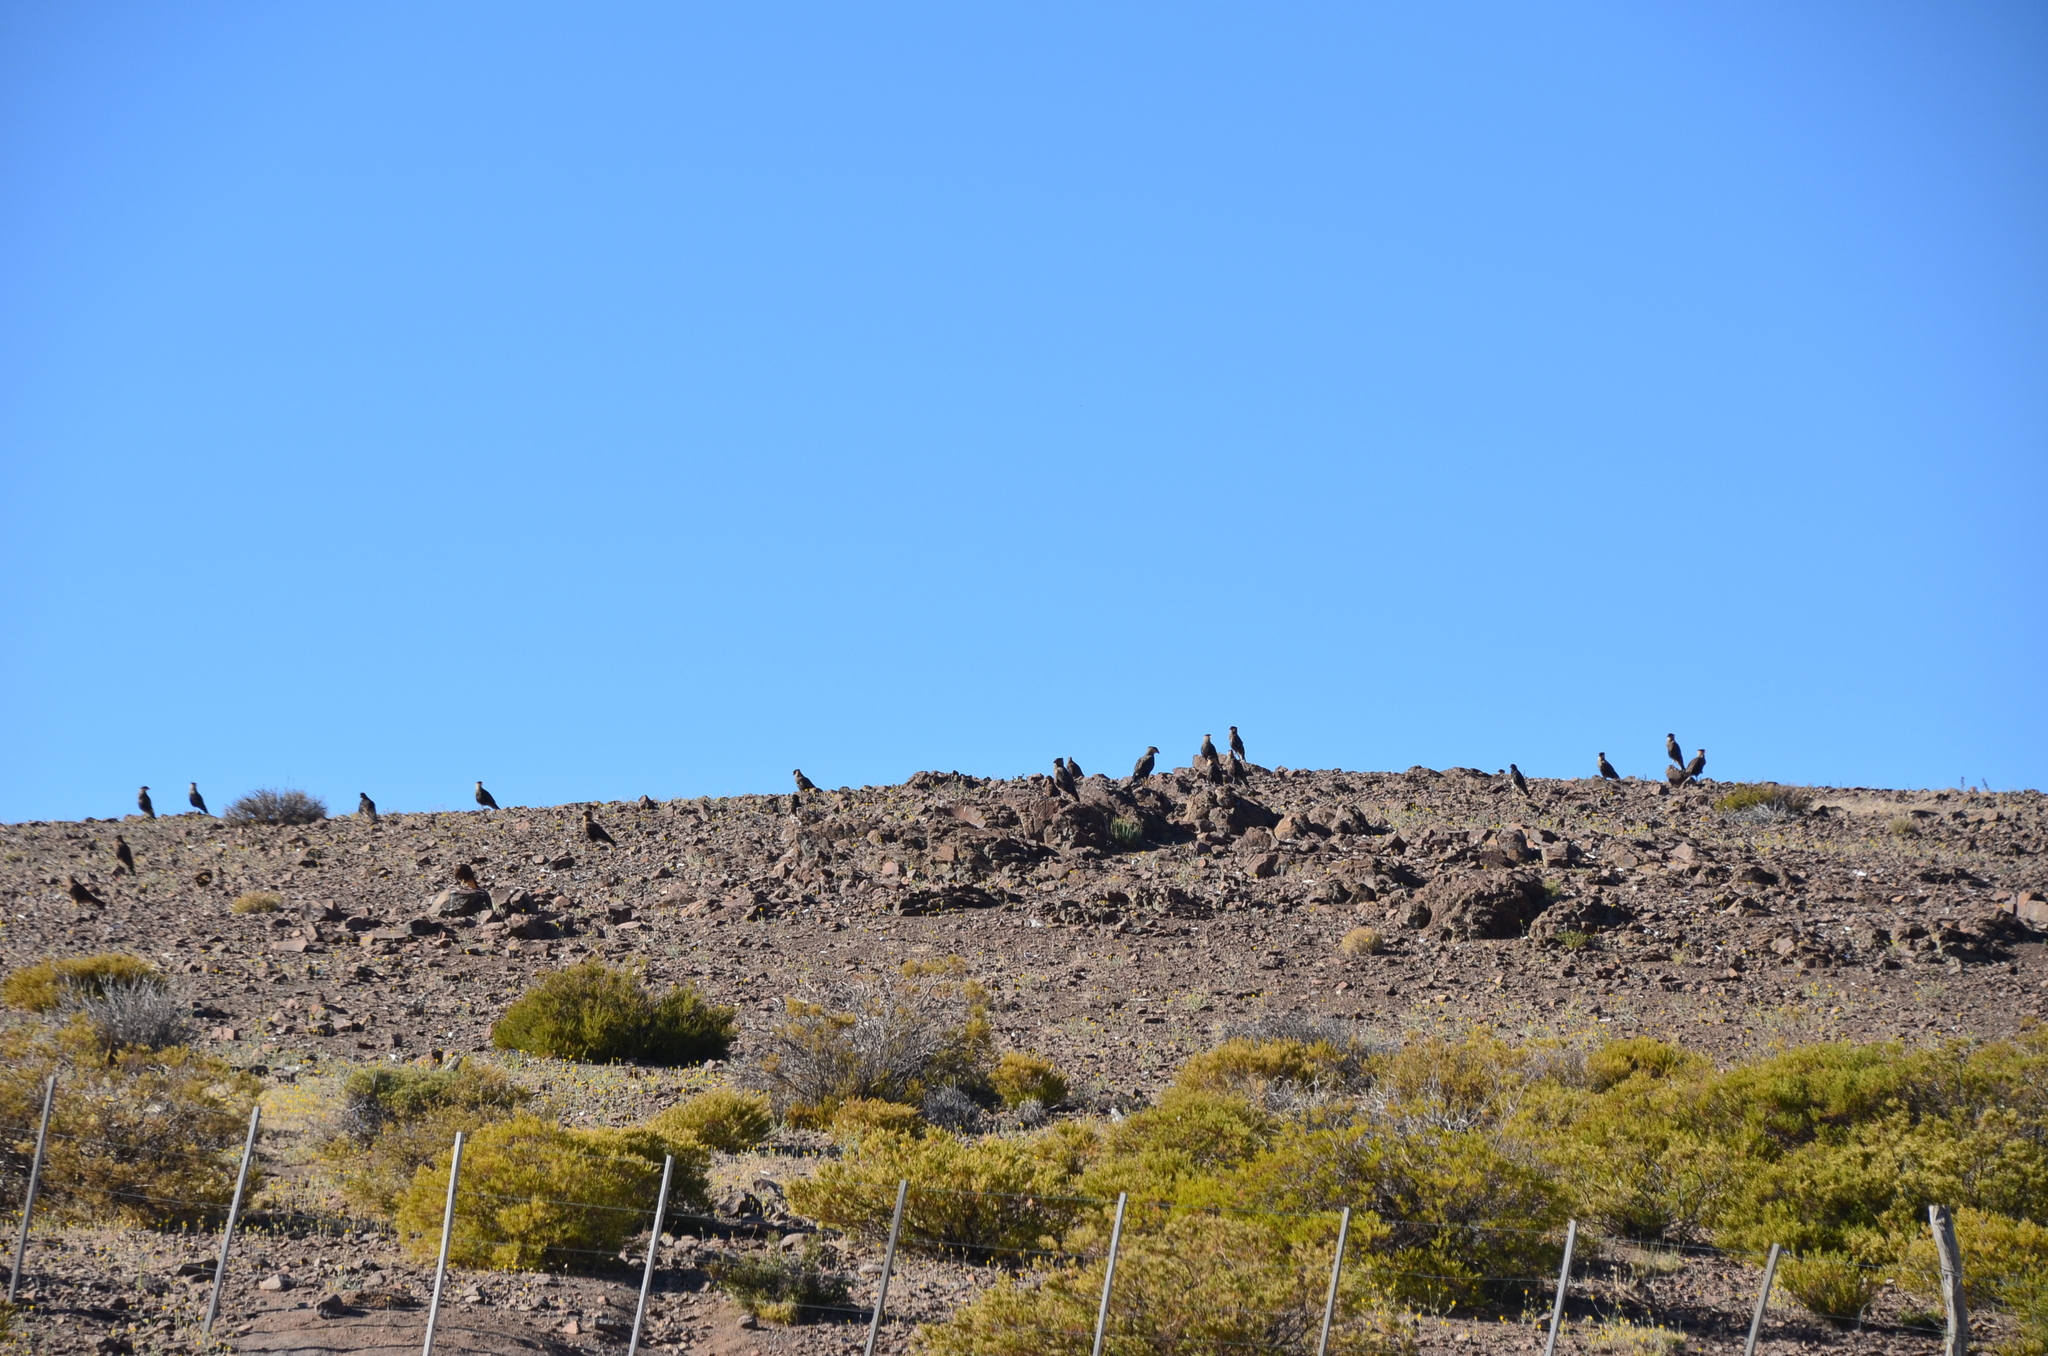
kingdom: Animalia
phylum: Chordata
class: Aves
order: Falconiformes
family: Falconidae
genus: Caracara
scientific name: Caracara plancus
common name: Southern caracara
